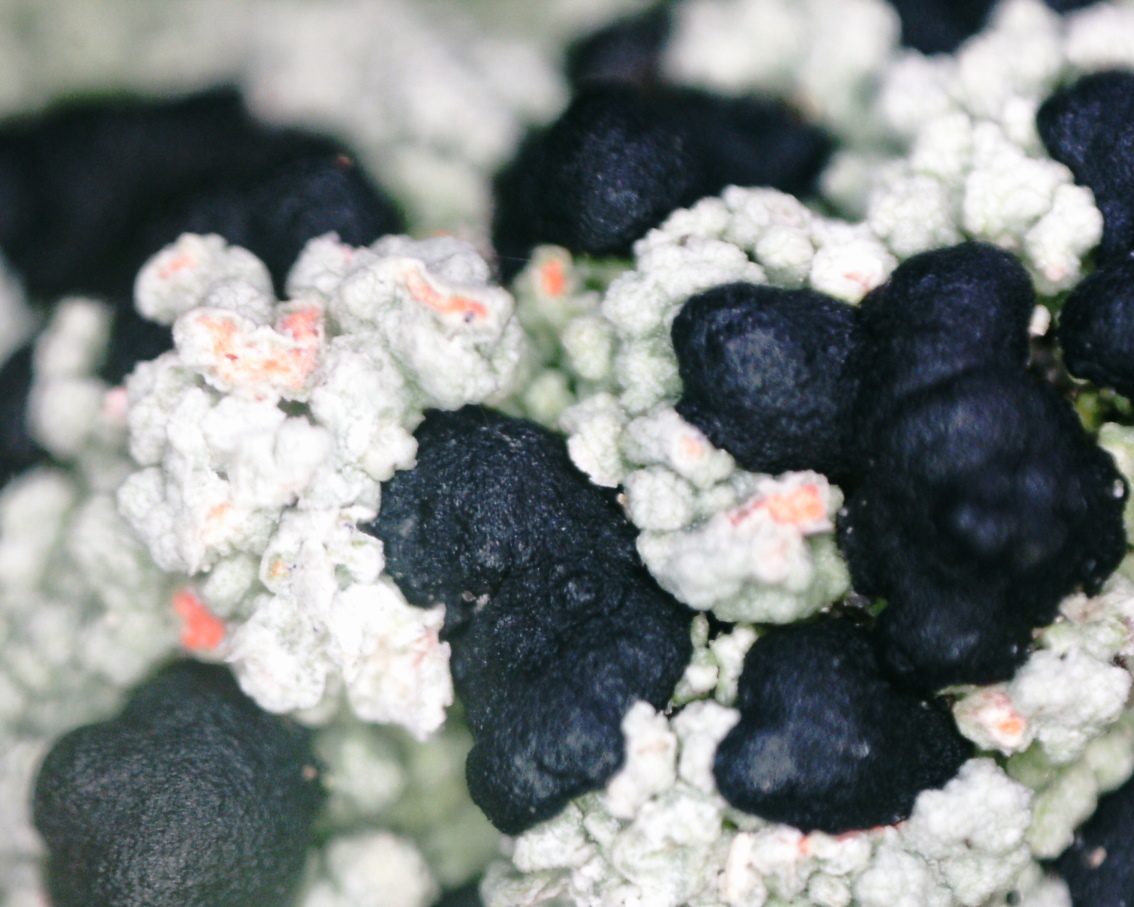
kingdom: Fungi
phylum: Ascomycota
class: Lecanoromycetes
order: Lecanorales
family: Tephromelataceae
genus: Mycoblastus
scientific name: Mycoblastus sanguinarius
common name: Bloody-heart lichen
